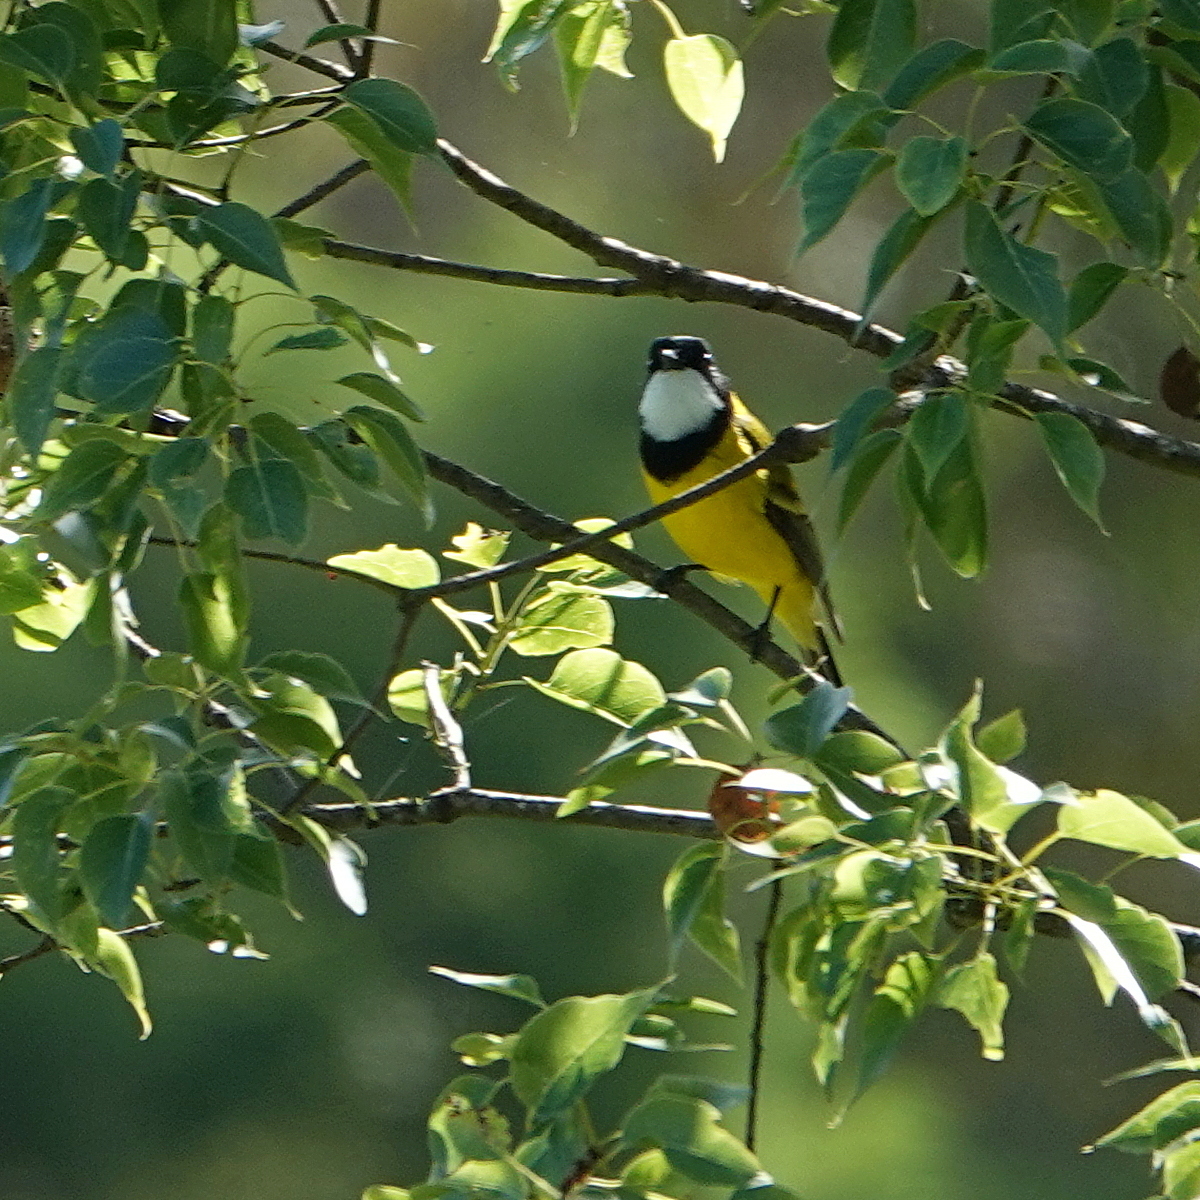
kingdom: Animalia
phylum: Chordata
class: Aves
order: Passeriformes
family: Pachycephalidae
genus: Pachycephala
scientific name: Pachycephala pectoralis
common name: Australian golden whistler
